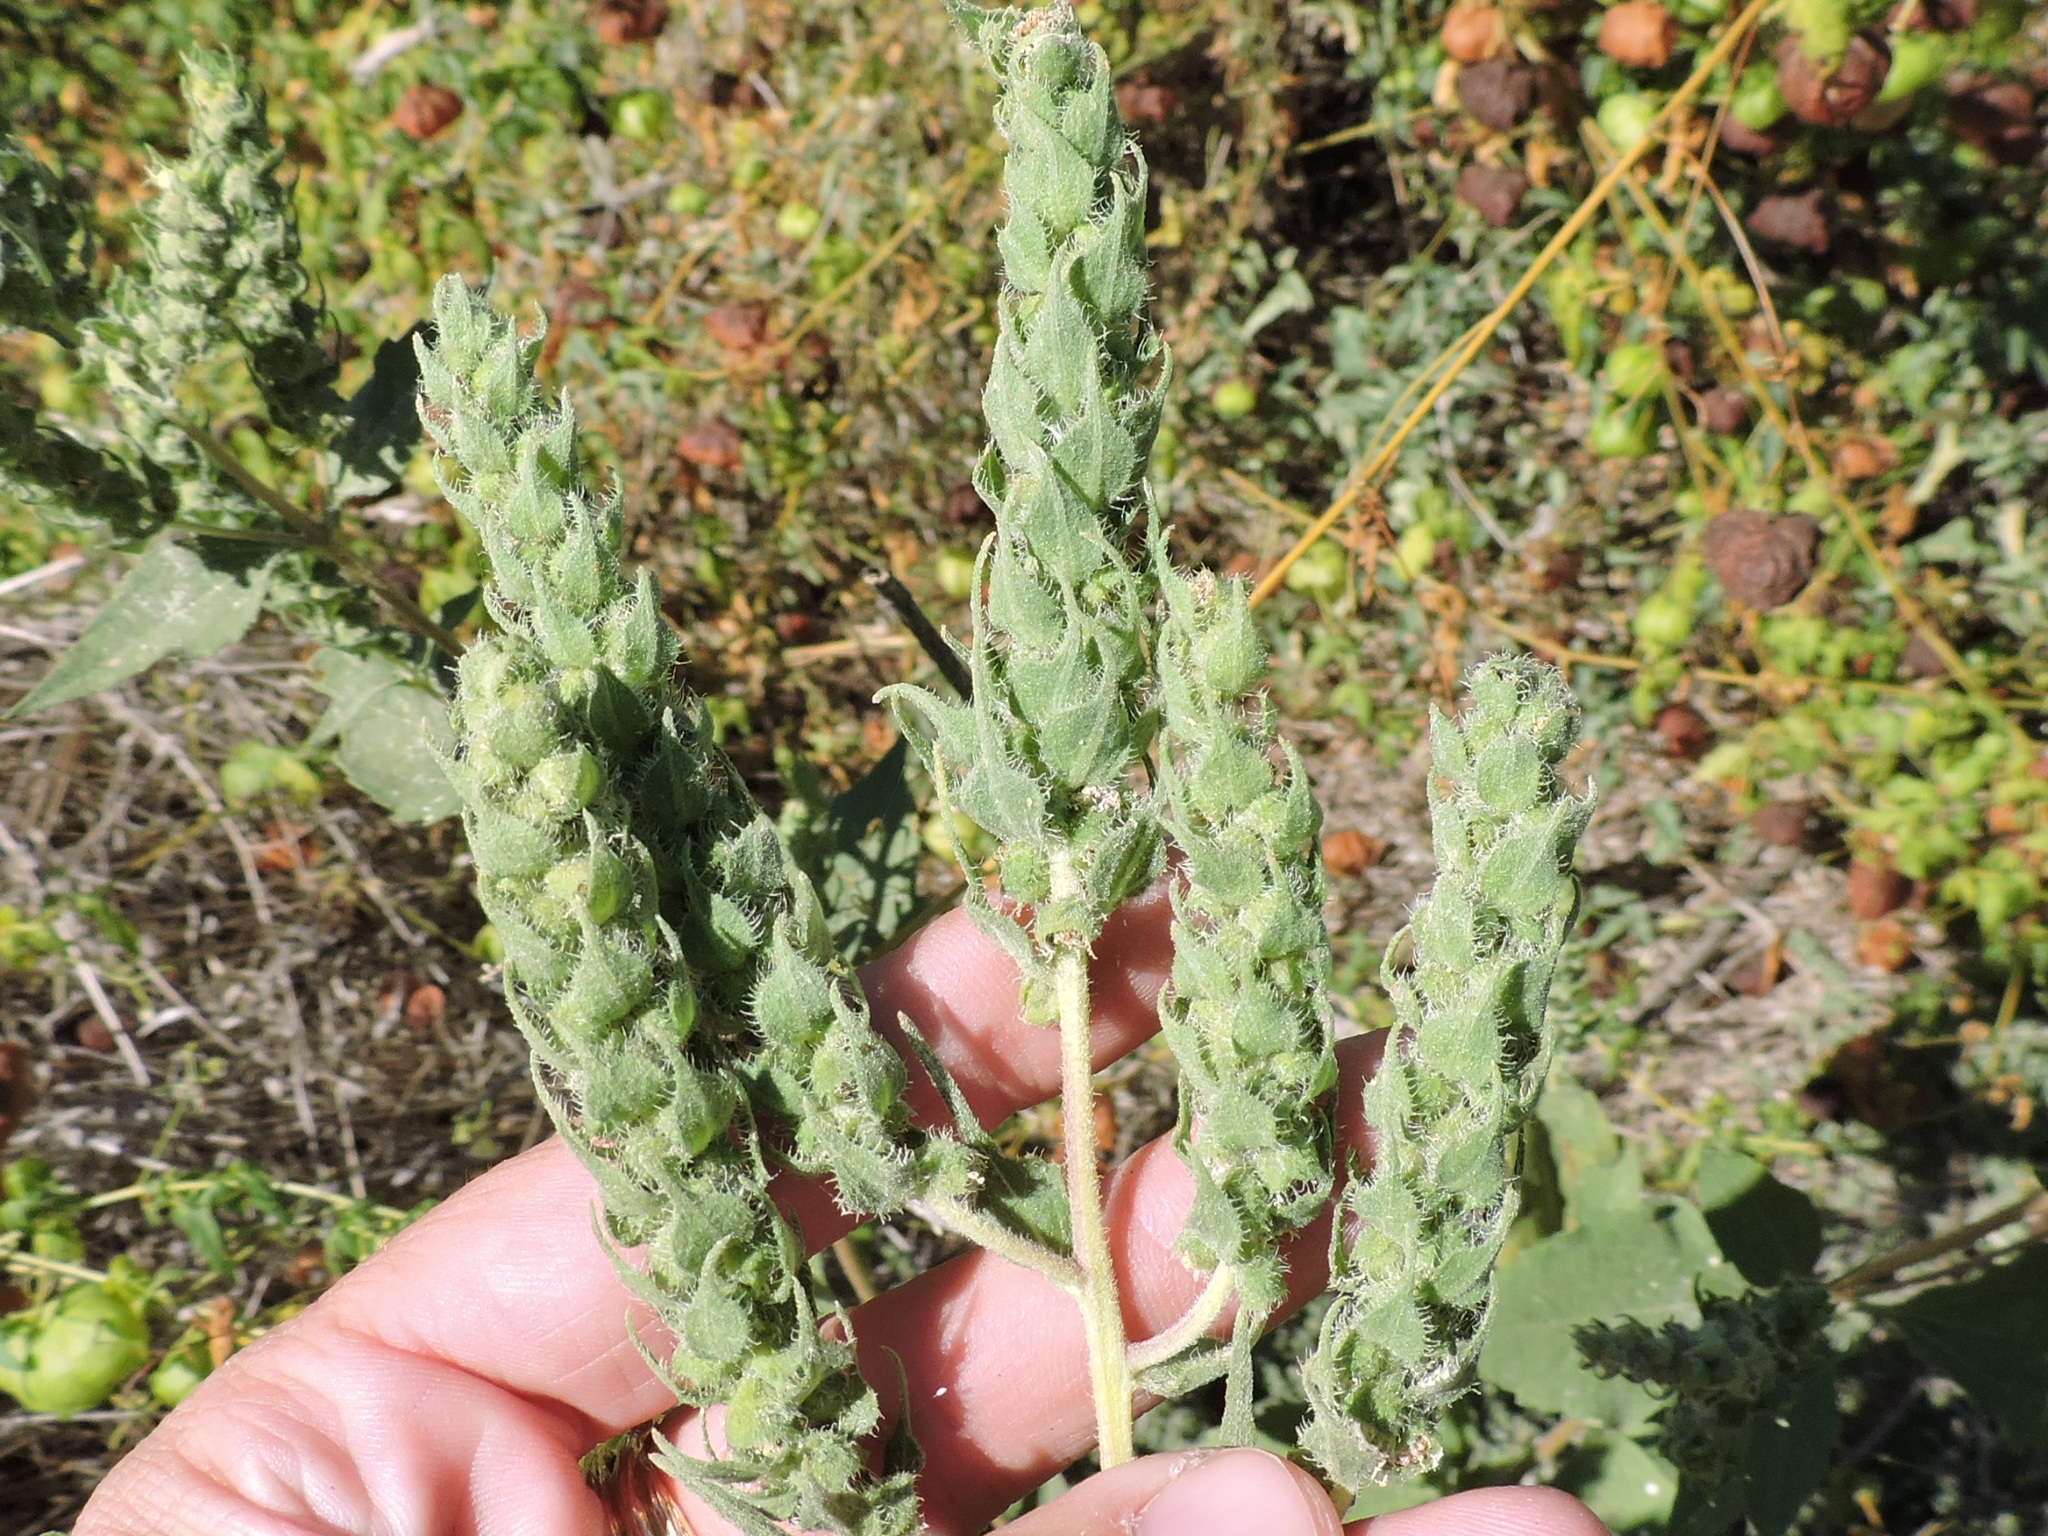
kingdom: Plantae
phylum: Tracheophyta
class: Magnoliopsida
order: Asterales
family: Asteraceae
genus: Iva
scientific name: Iva annua
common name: Marsh-elder
